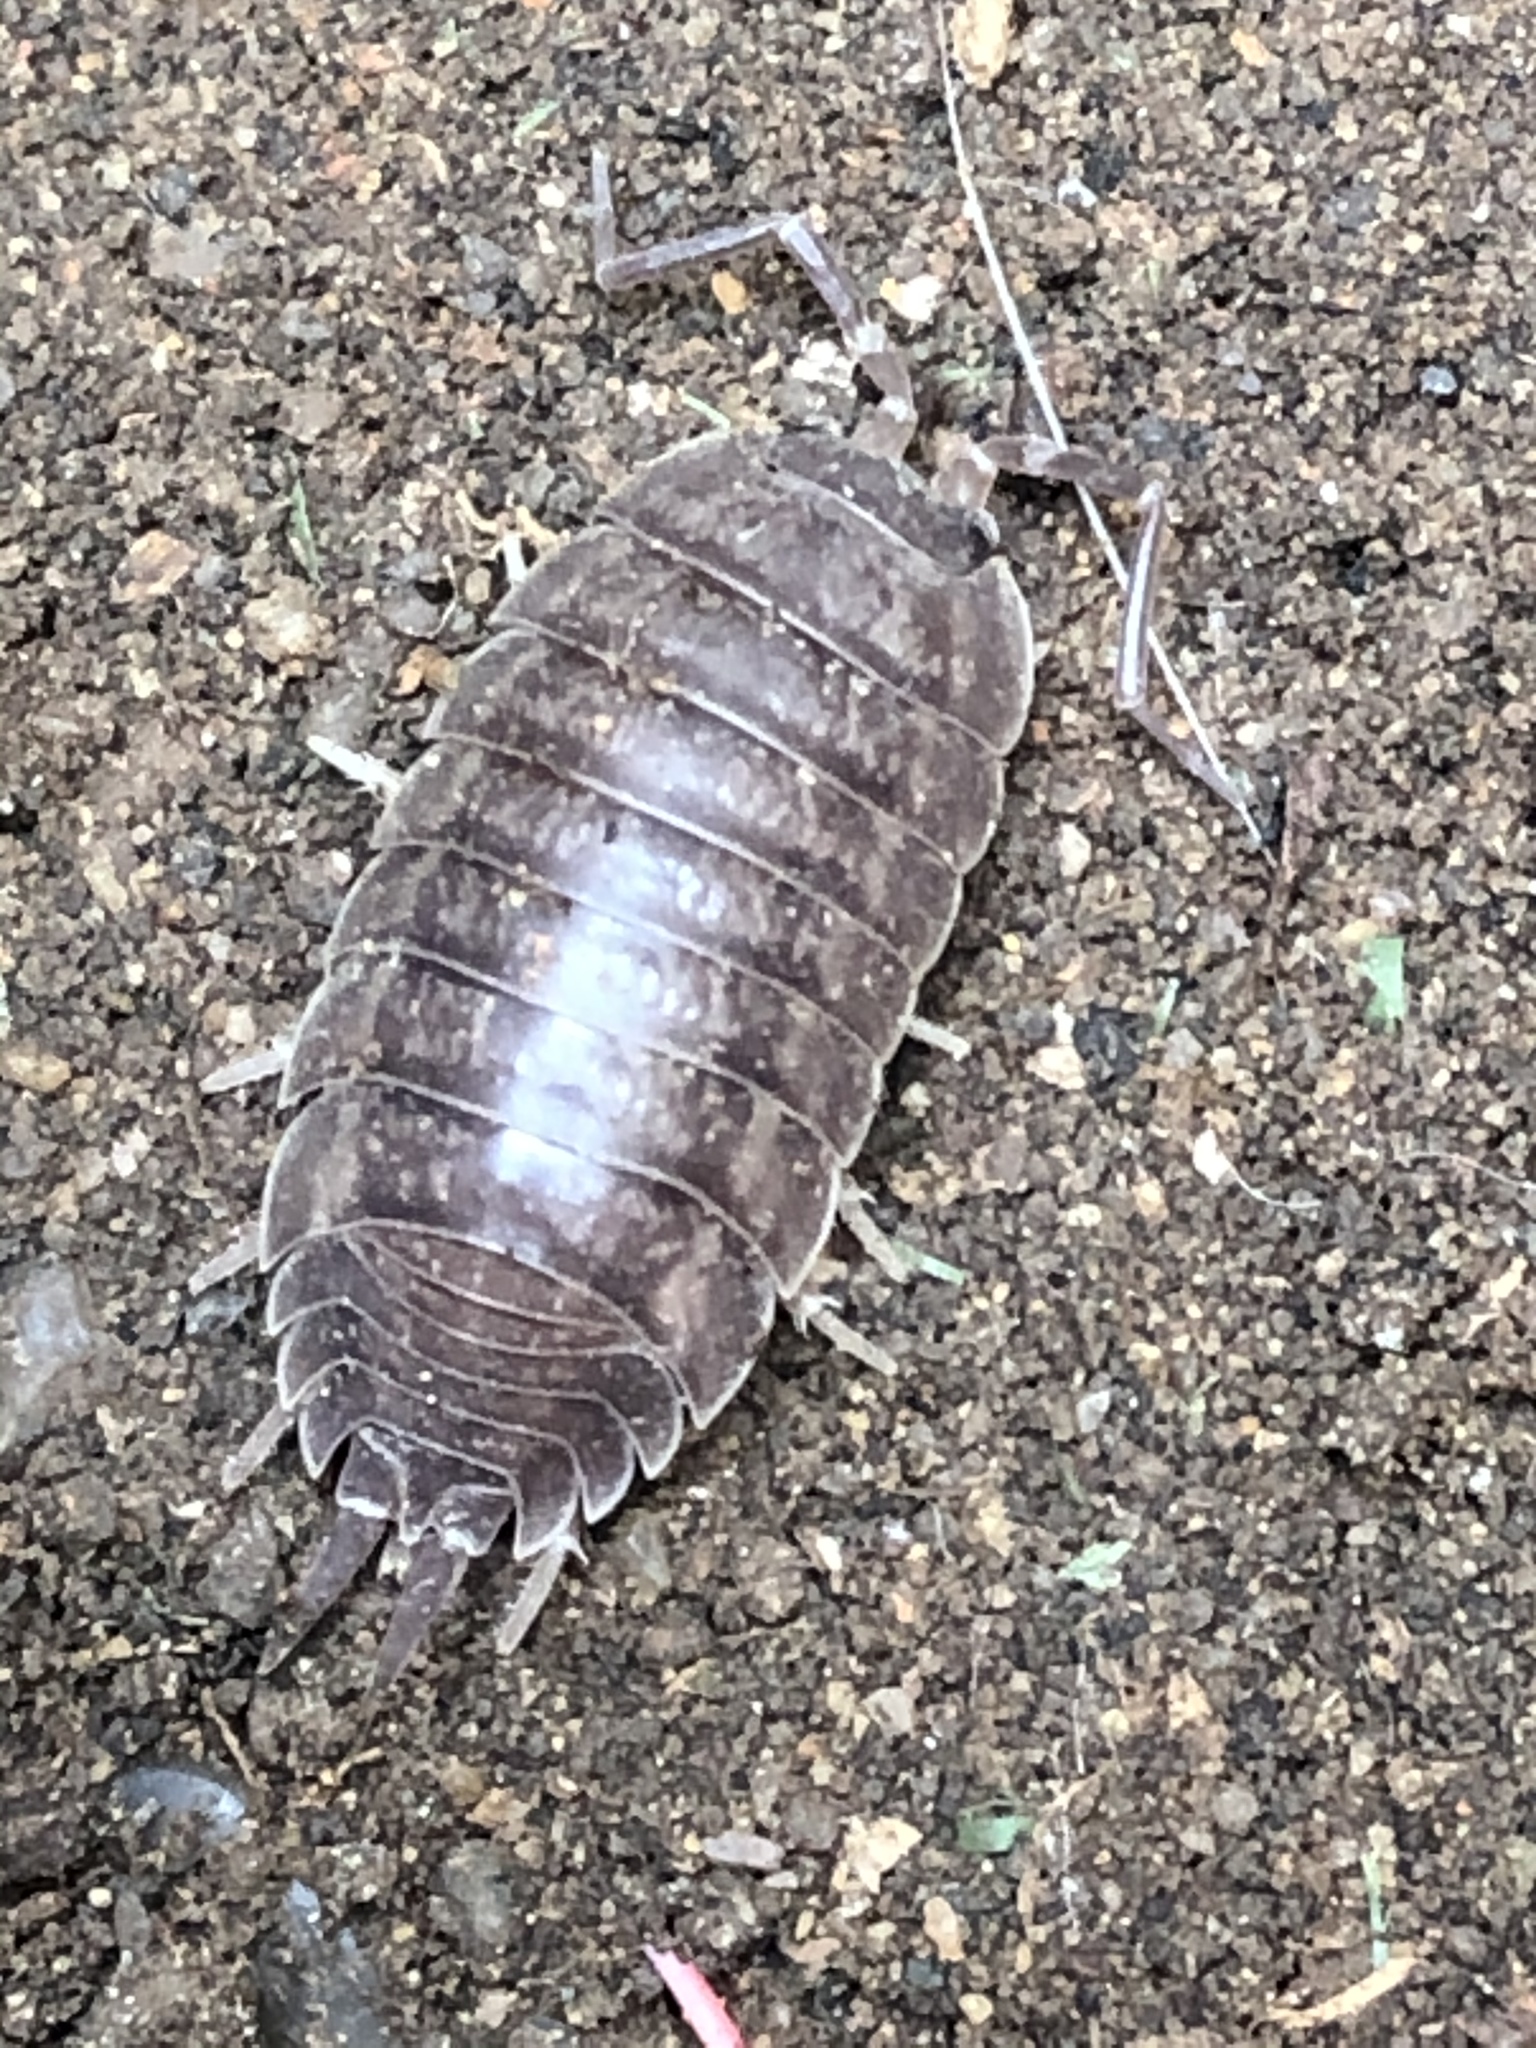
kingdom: Animalia
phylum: Arthropoda
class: Malacostraca
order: Isopoda
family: Porcellionidae
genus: Porcellio
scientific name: Porcellio laevis
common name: Swift woodlouse
